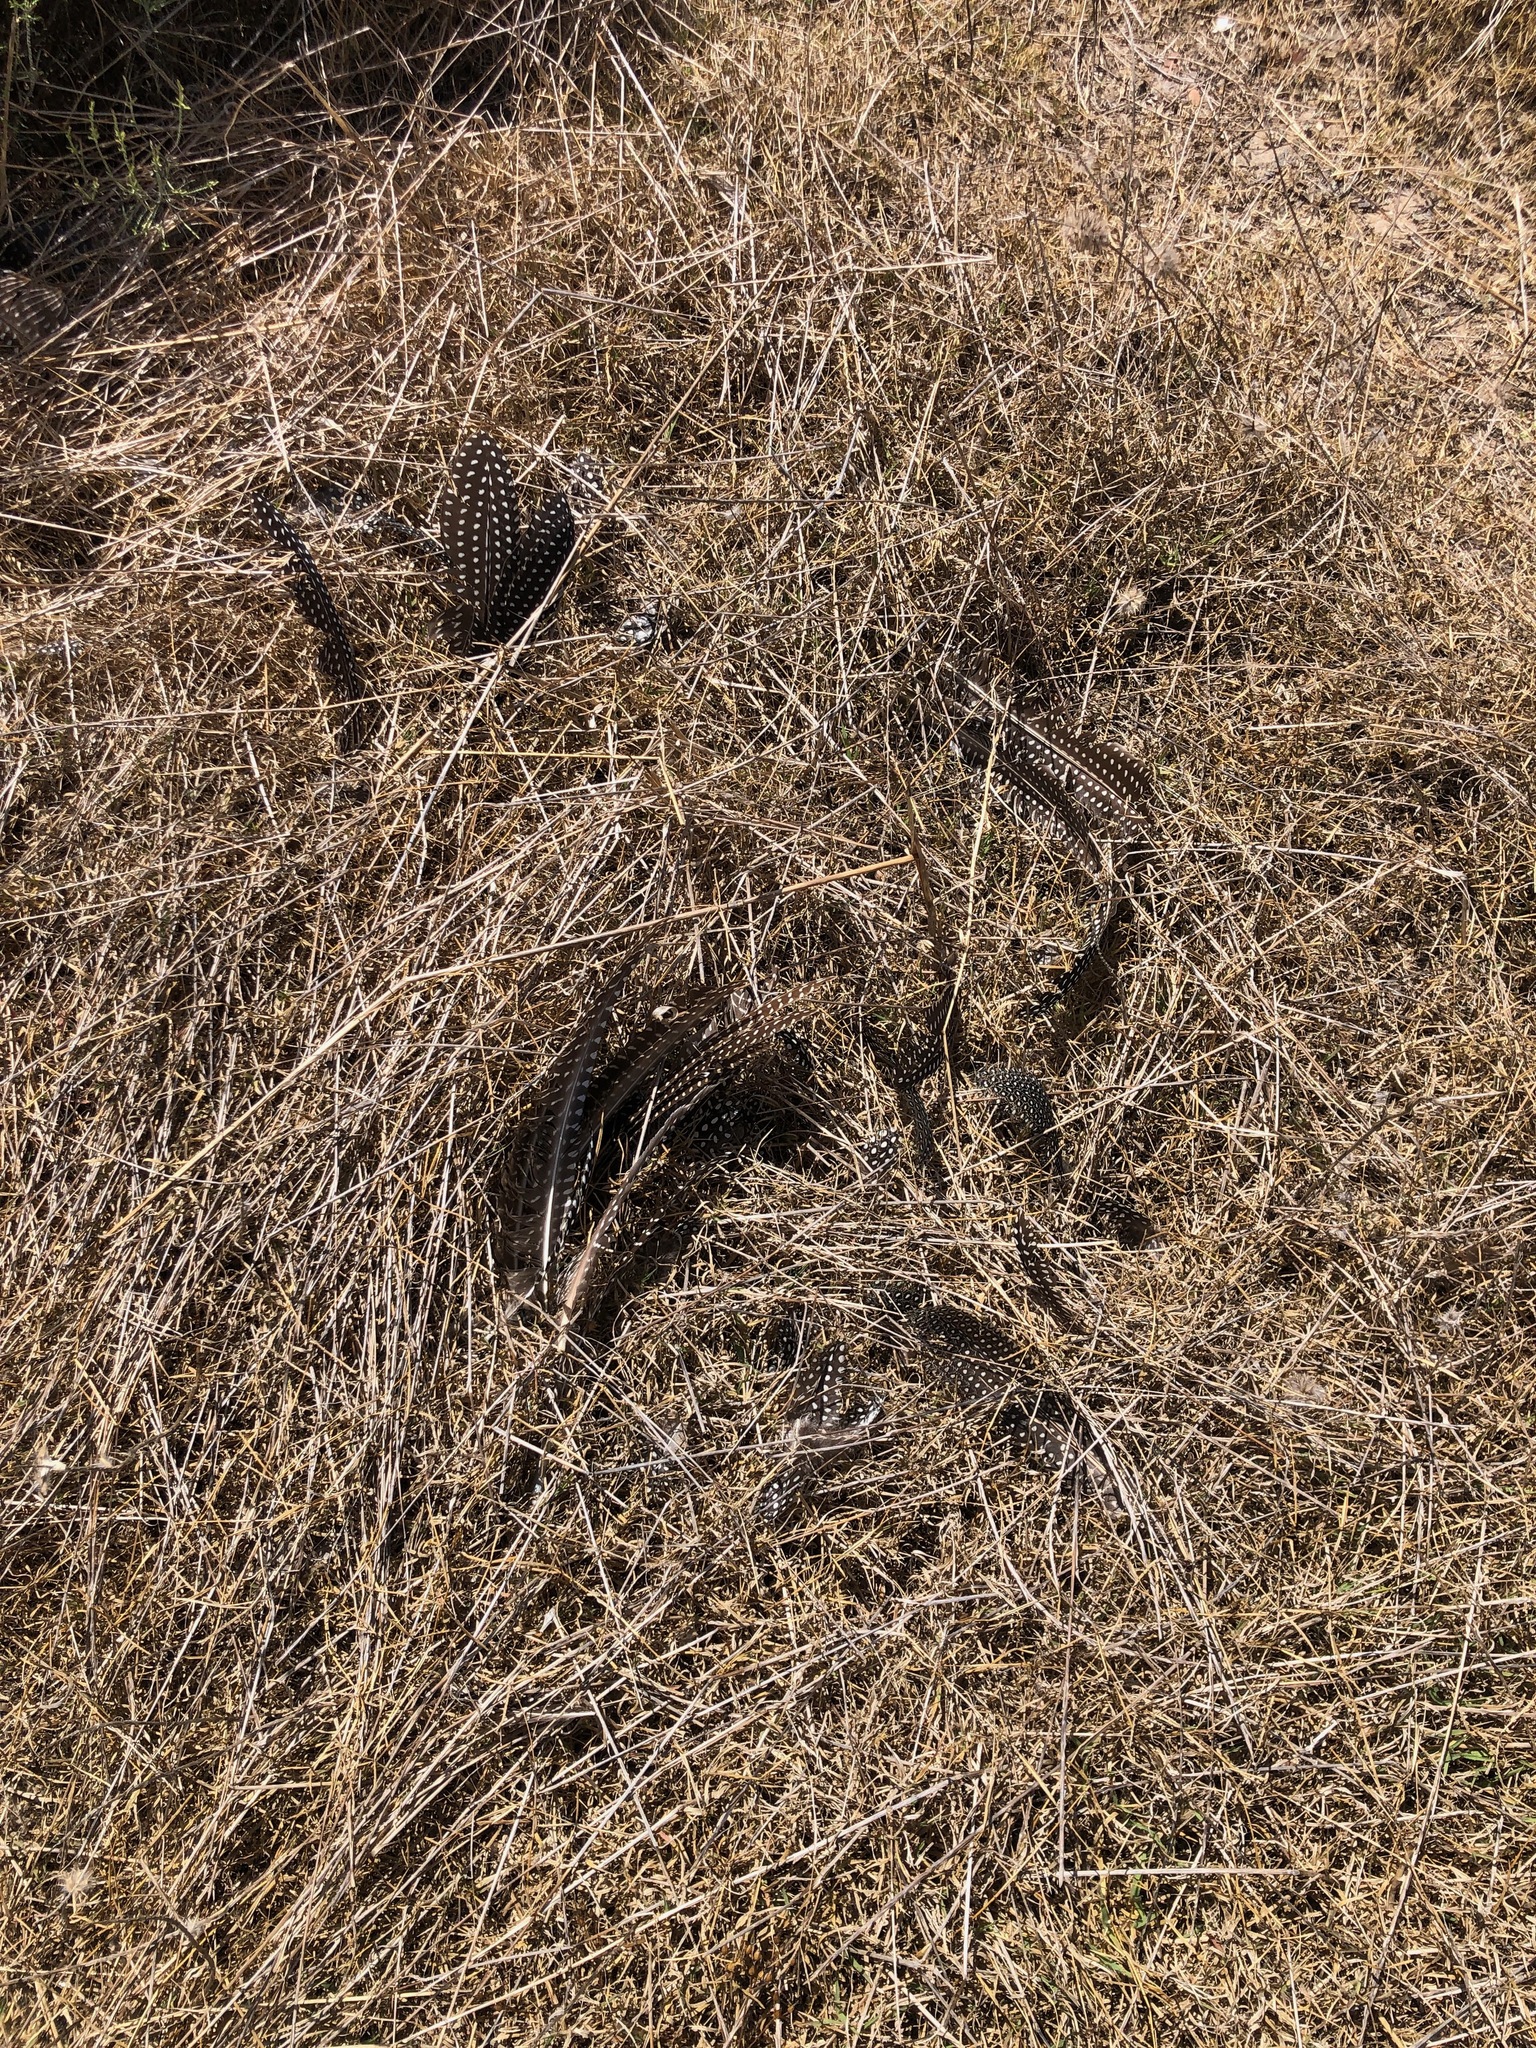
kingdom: Animalia
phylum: Chordata
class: Aves
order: Galliformes
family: Numididae
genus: Numida
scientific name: Numida meleagris
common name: Helmeted guineafowl
